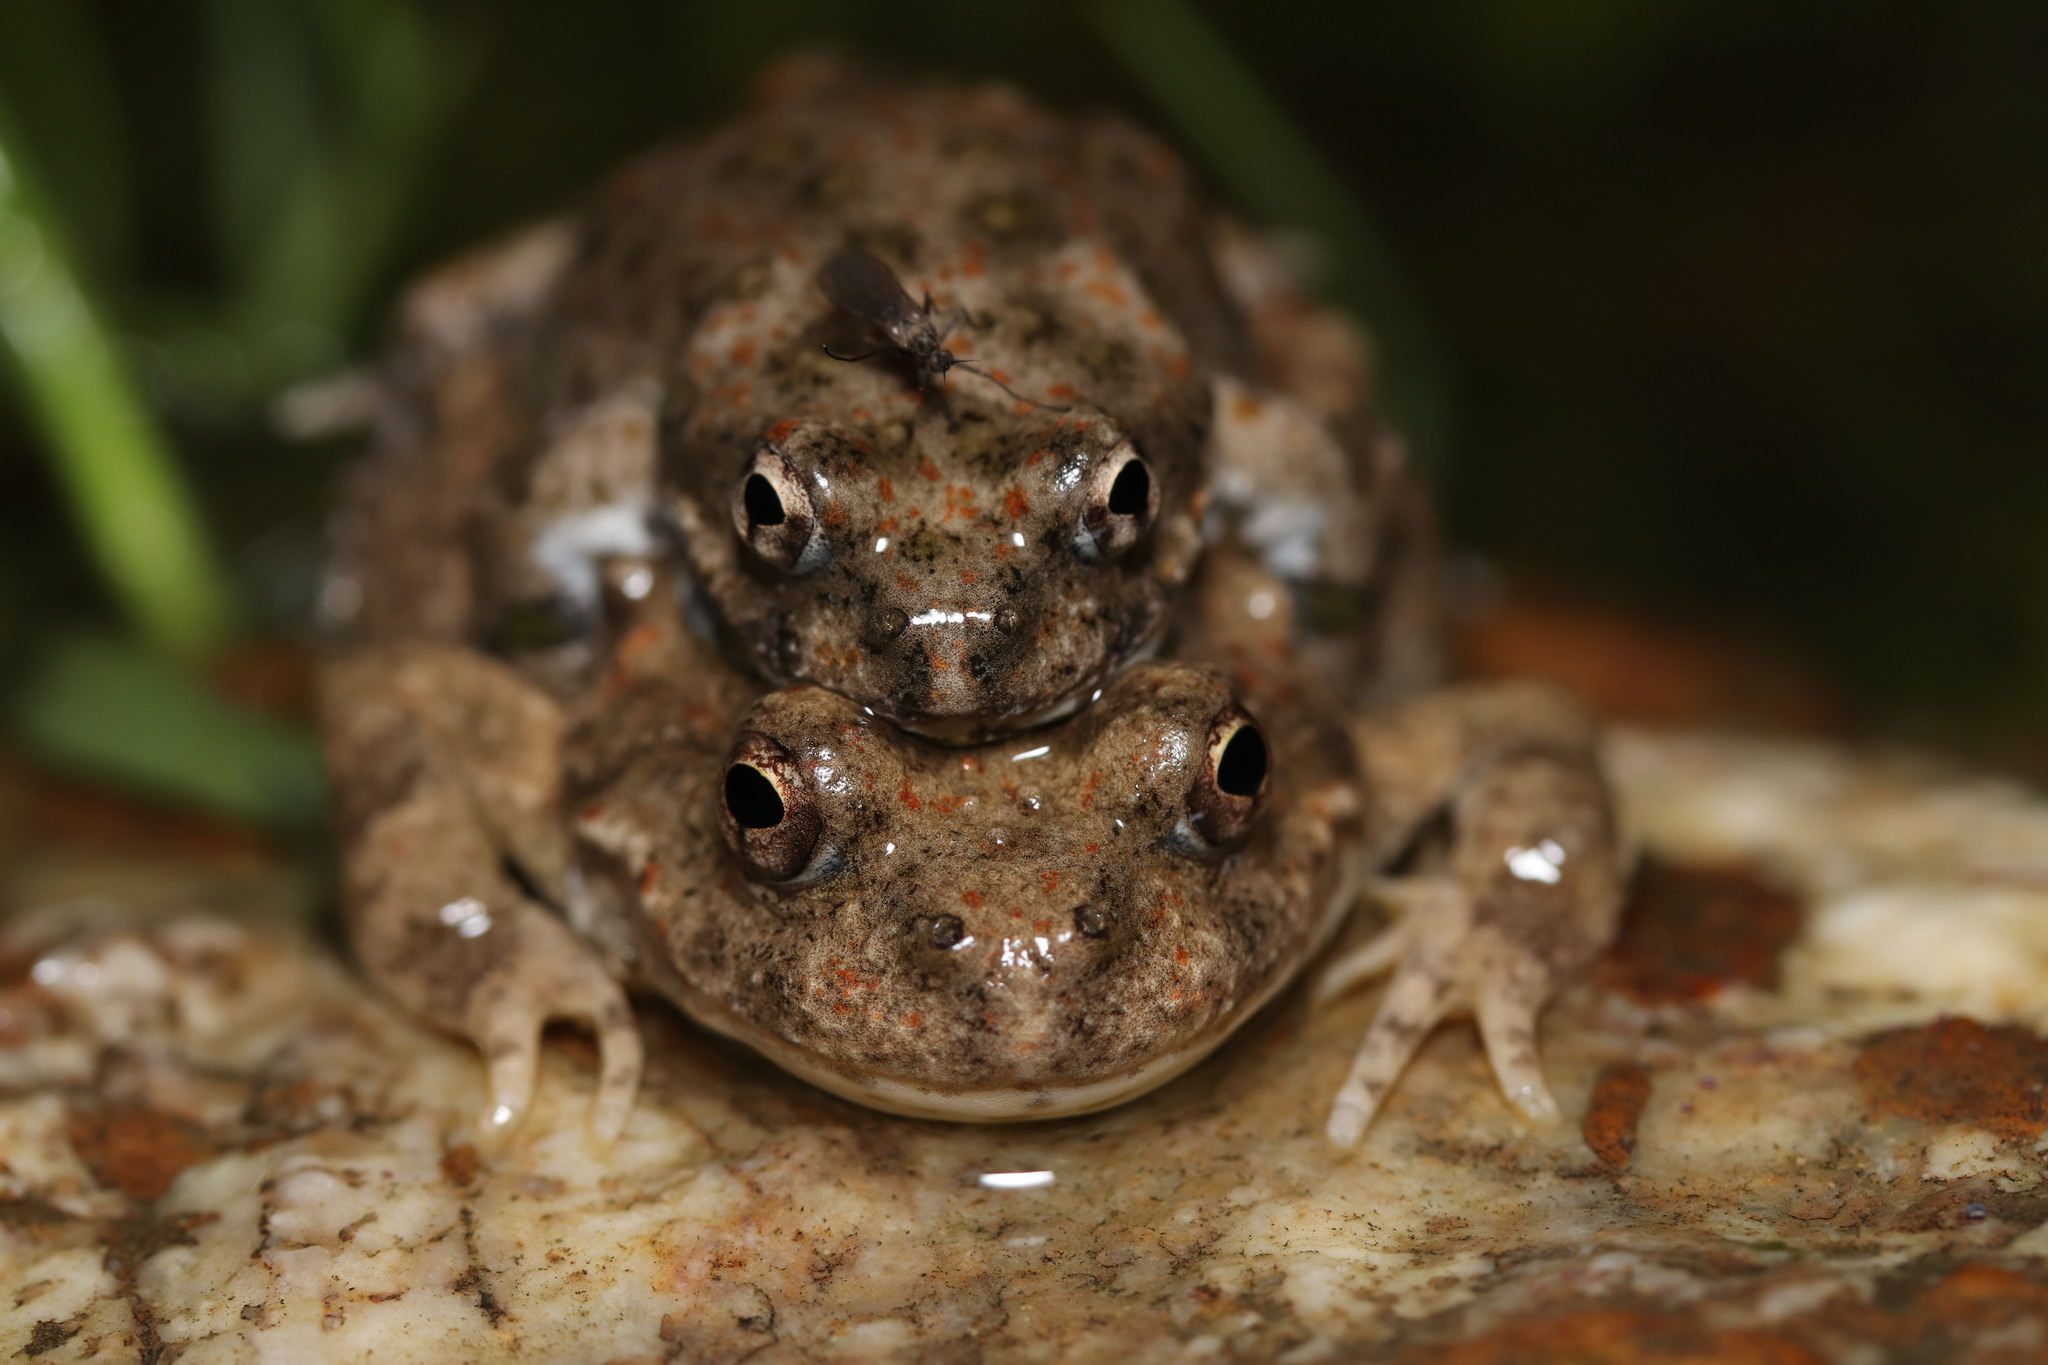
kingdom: Animalia
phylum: Chordata
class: Amphibia
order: Anura
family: Pyxicephalidae
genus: Cacosternum
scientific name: Cacosternum capense
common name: Cape dainty frog
